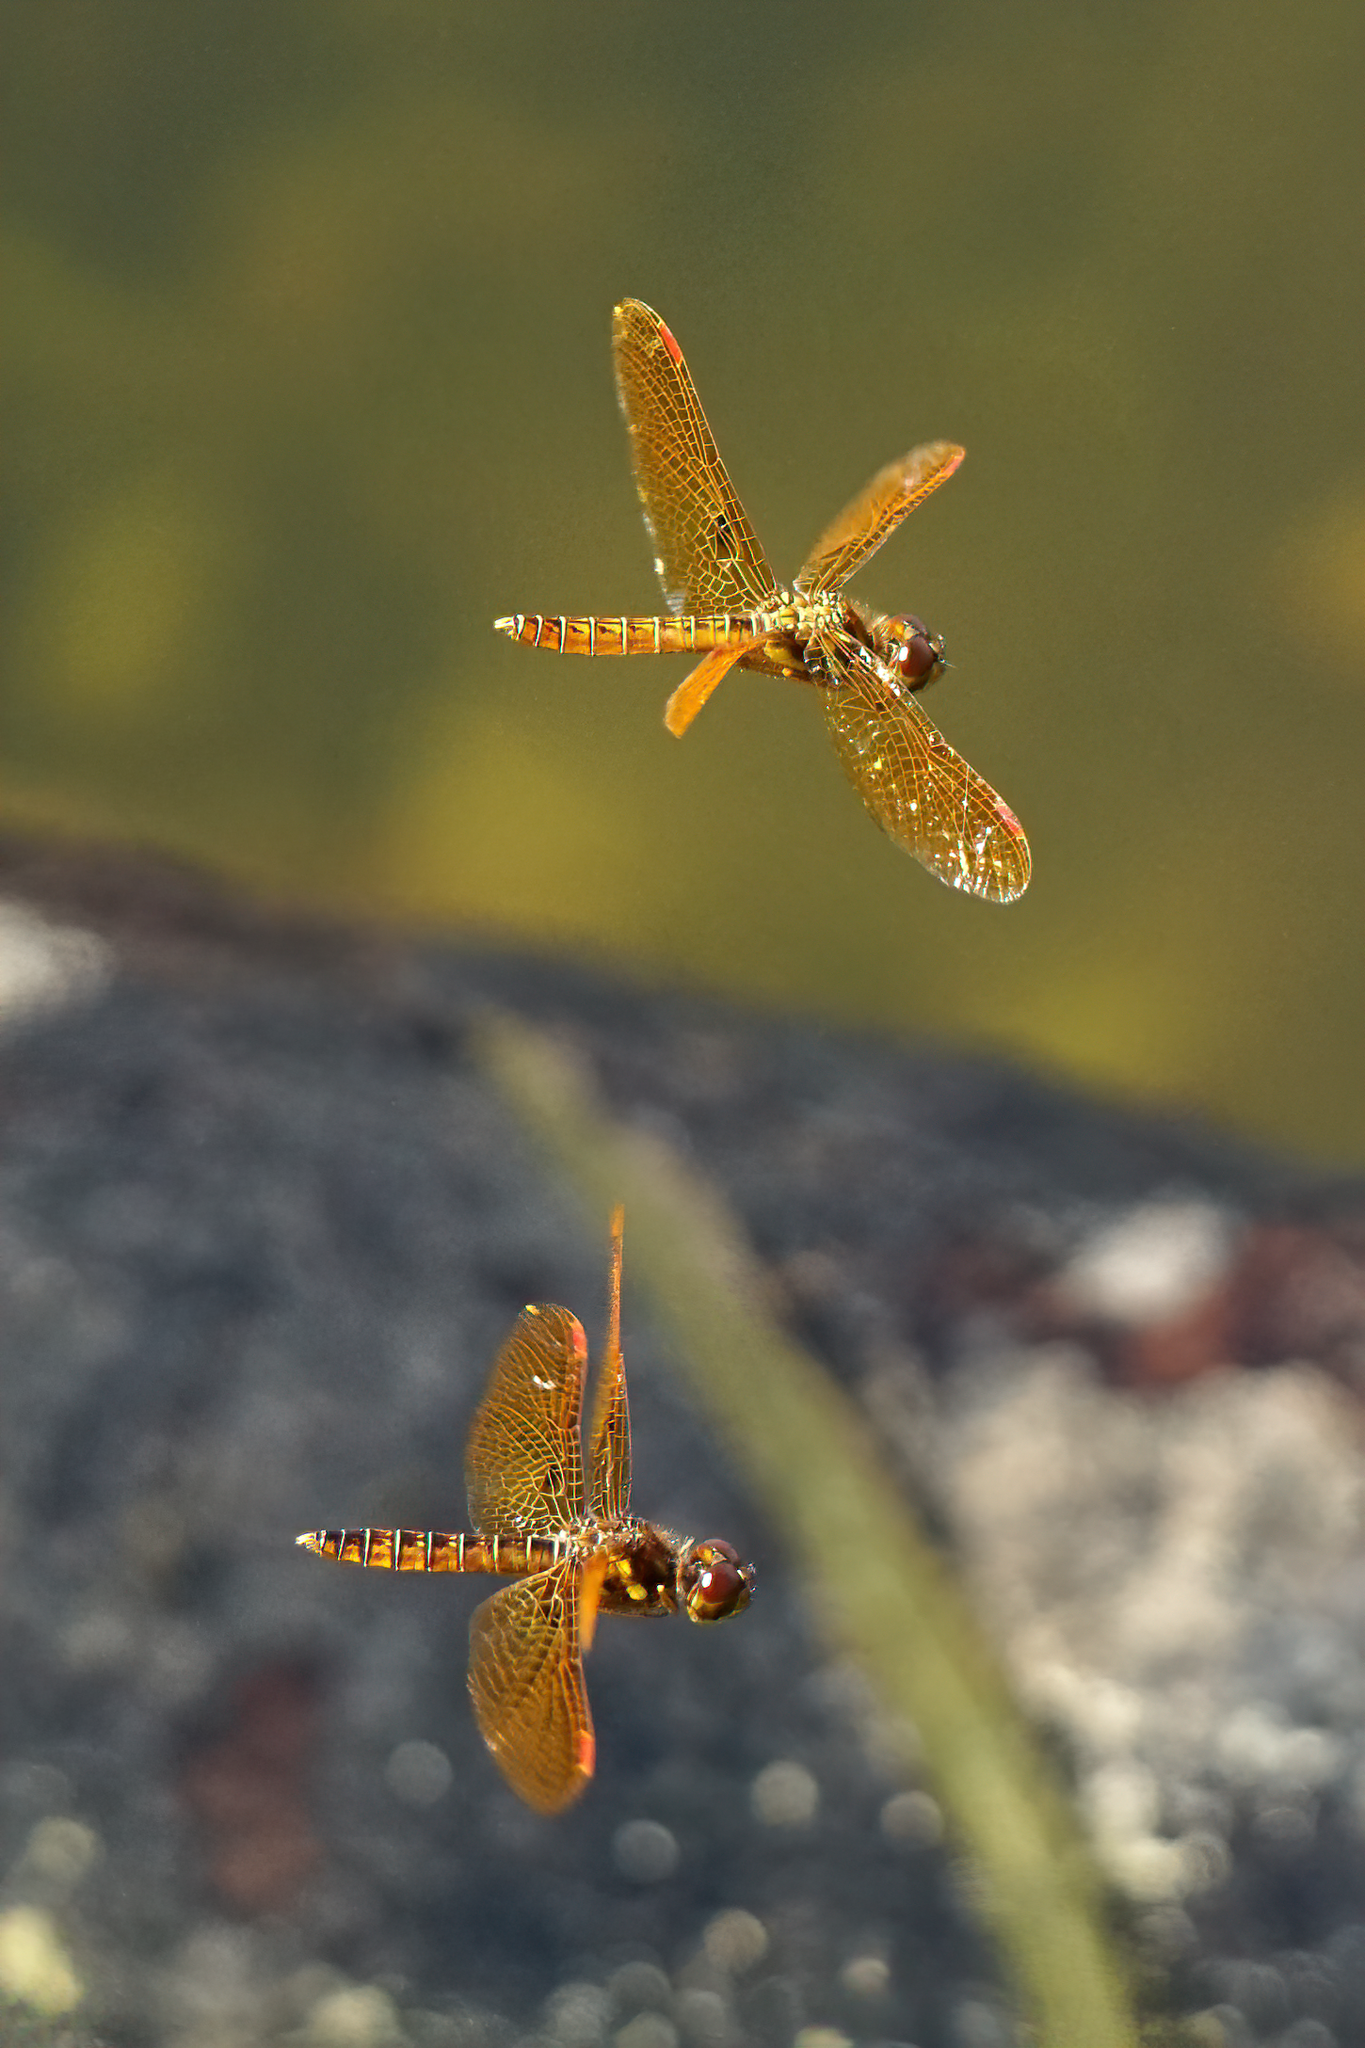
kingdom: Animalia
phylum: Arthropoda
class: Insecta
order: Odonata
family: Libellulidae
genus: Perithemis
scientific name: Perithemis tenera
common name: Eastern amberwing
